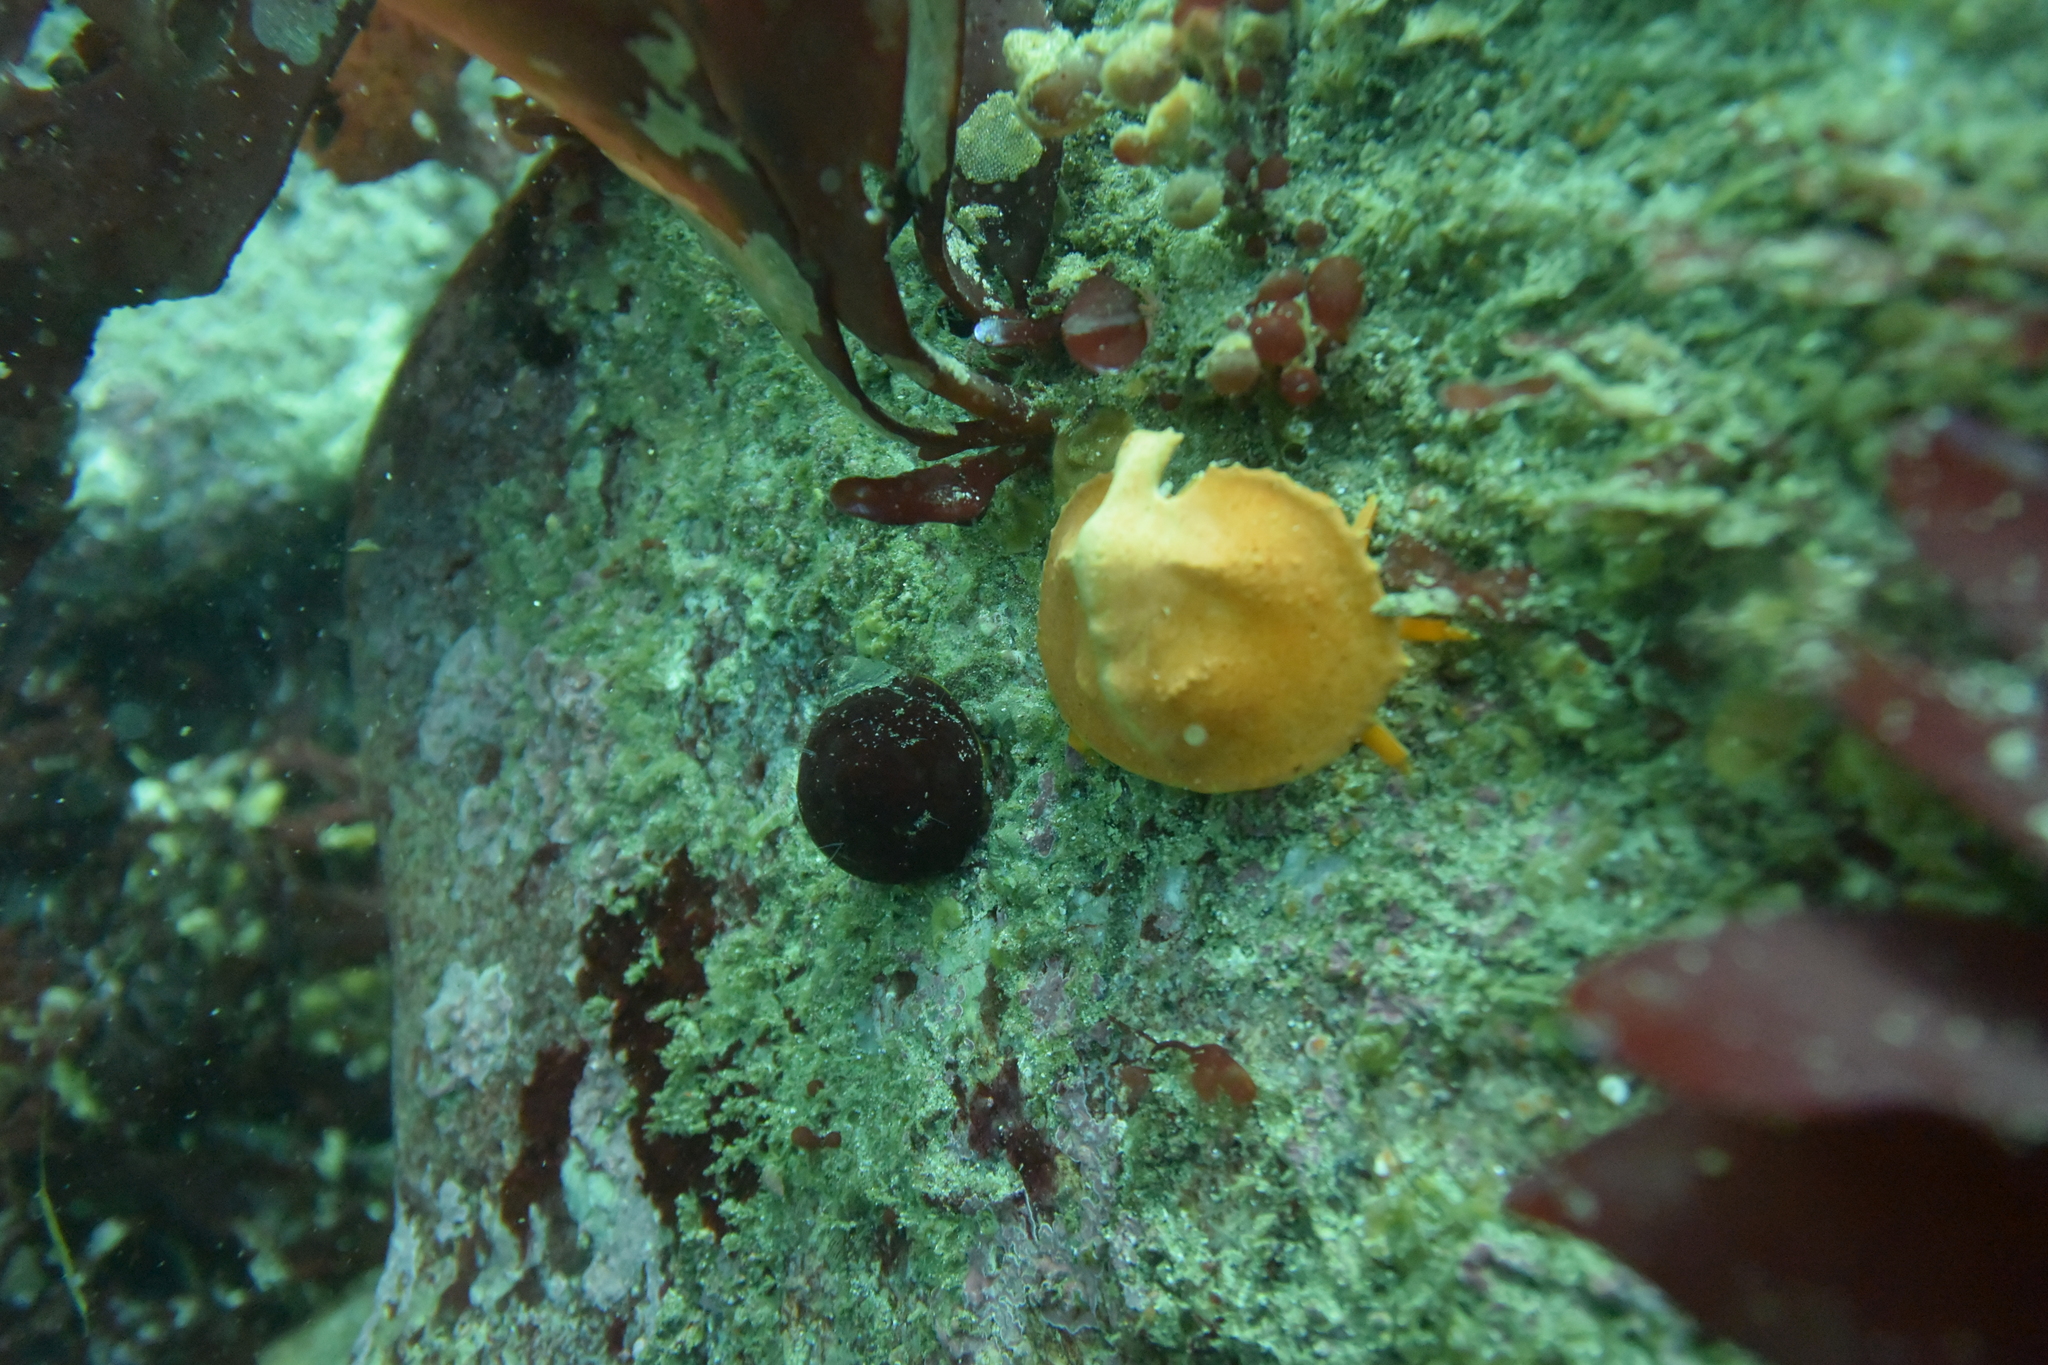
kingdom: Animalia
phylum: Arthropoda
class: Malacostraca
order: Decapoda
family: Lithodidae
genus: Cryptolithodes
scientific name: Cryptolithodes sitchensis
